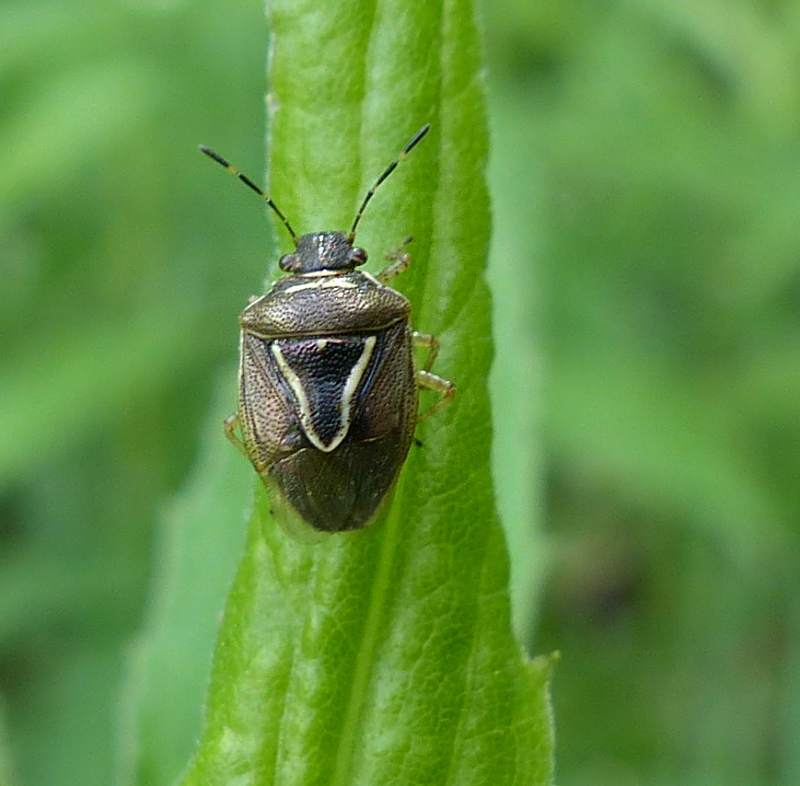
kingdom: Animalia
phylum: Arthropoda
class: Insecta
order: Hemiptera
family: Pentatomidae
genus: Mormidea
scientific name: Mormidea lugens
